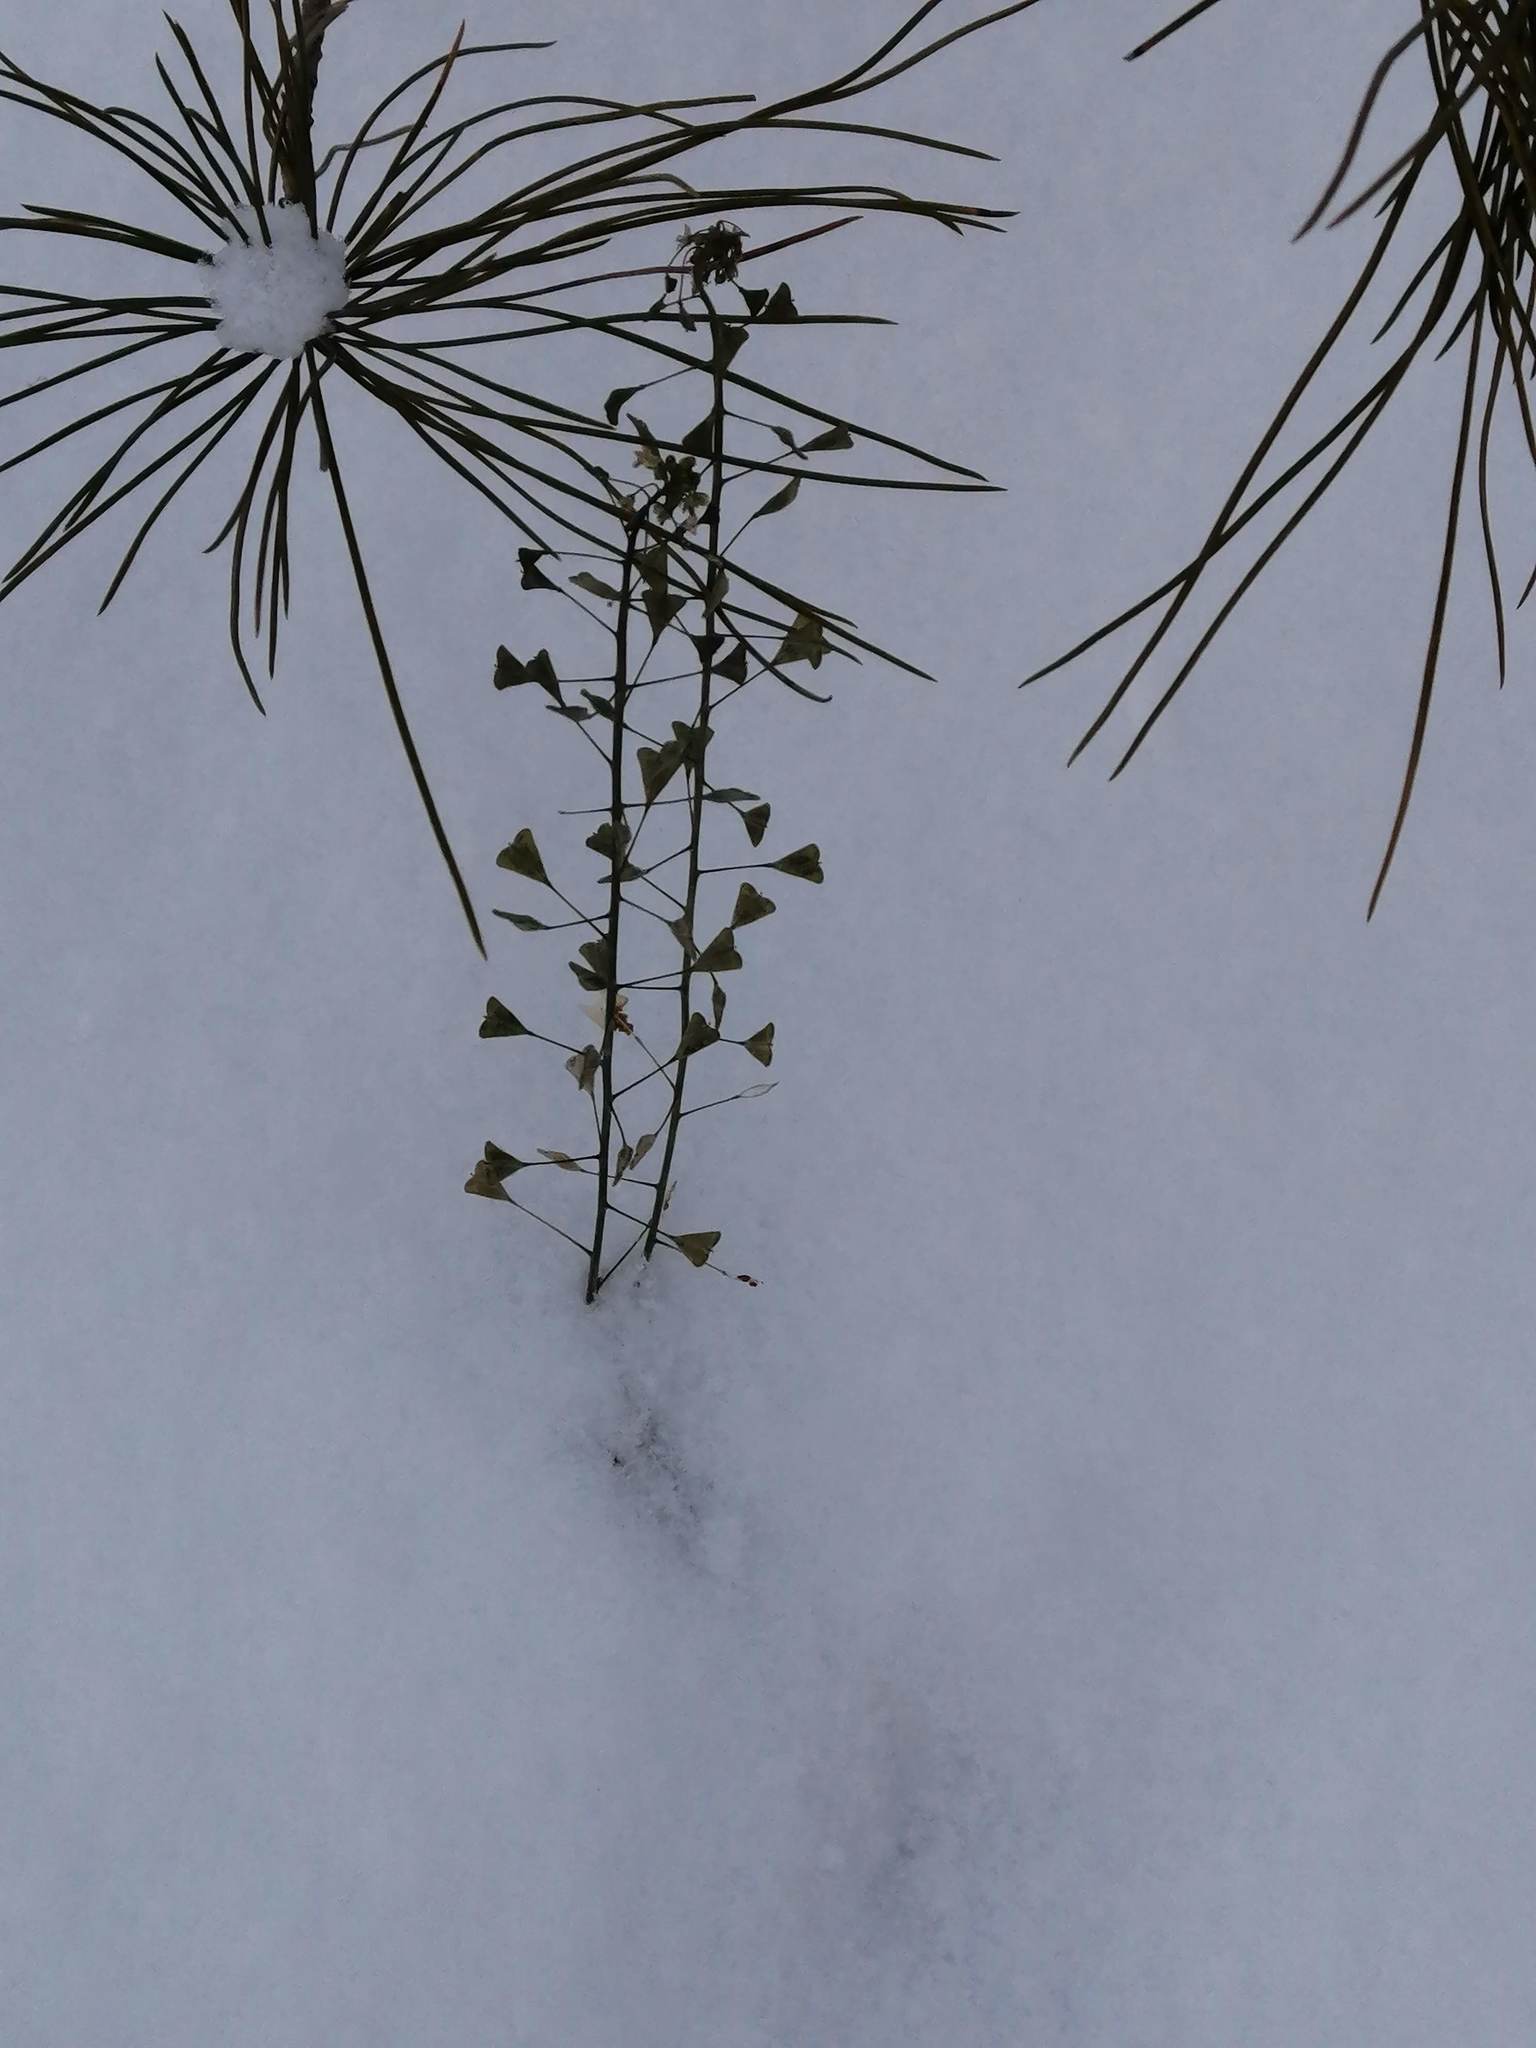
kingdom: Plantae
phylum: Tracheophyta
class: Magnoliopsida
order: Brassicales
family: Brassicaceae
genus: Capsella
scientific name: Capsella bursa-pastoris
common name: Shepherd's purse
